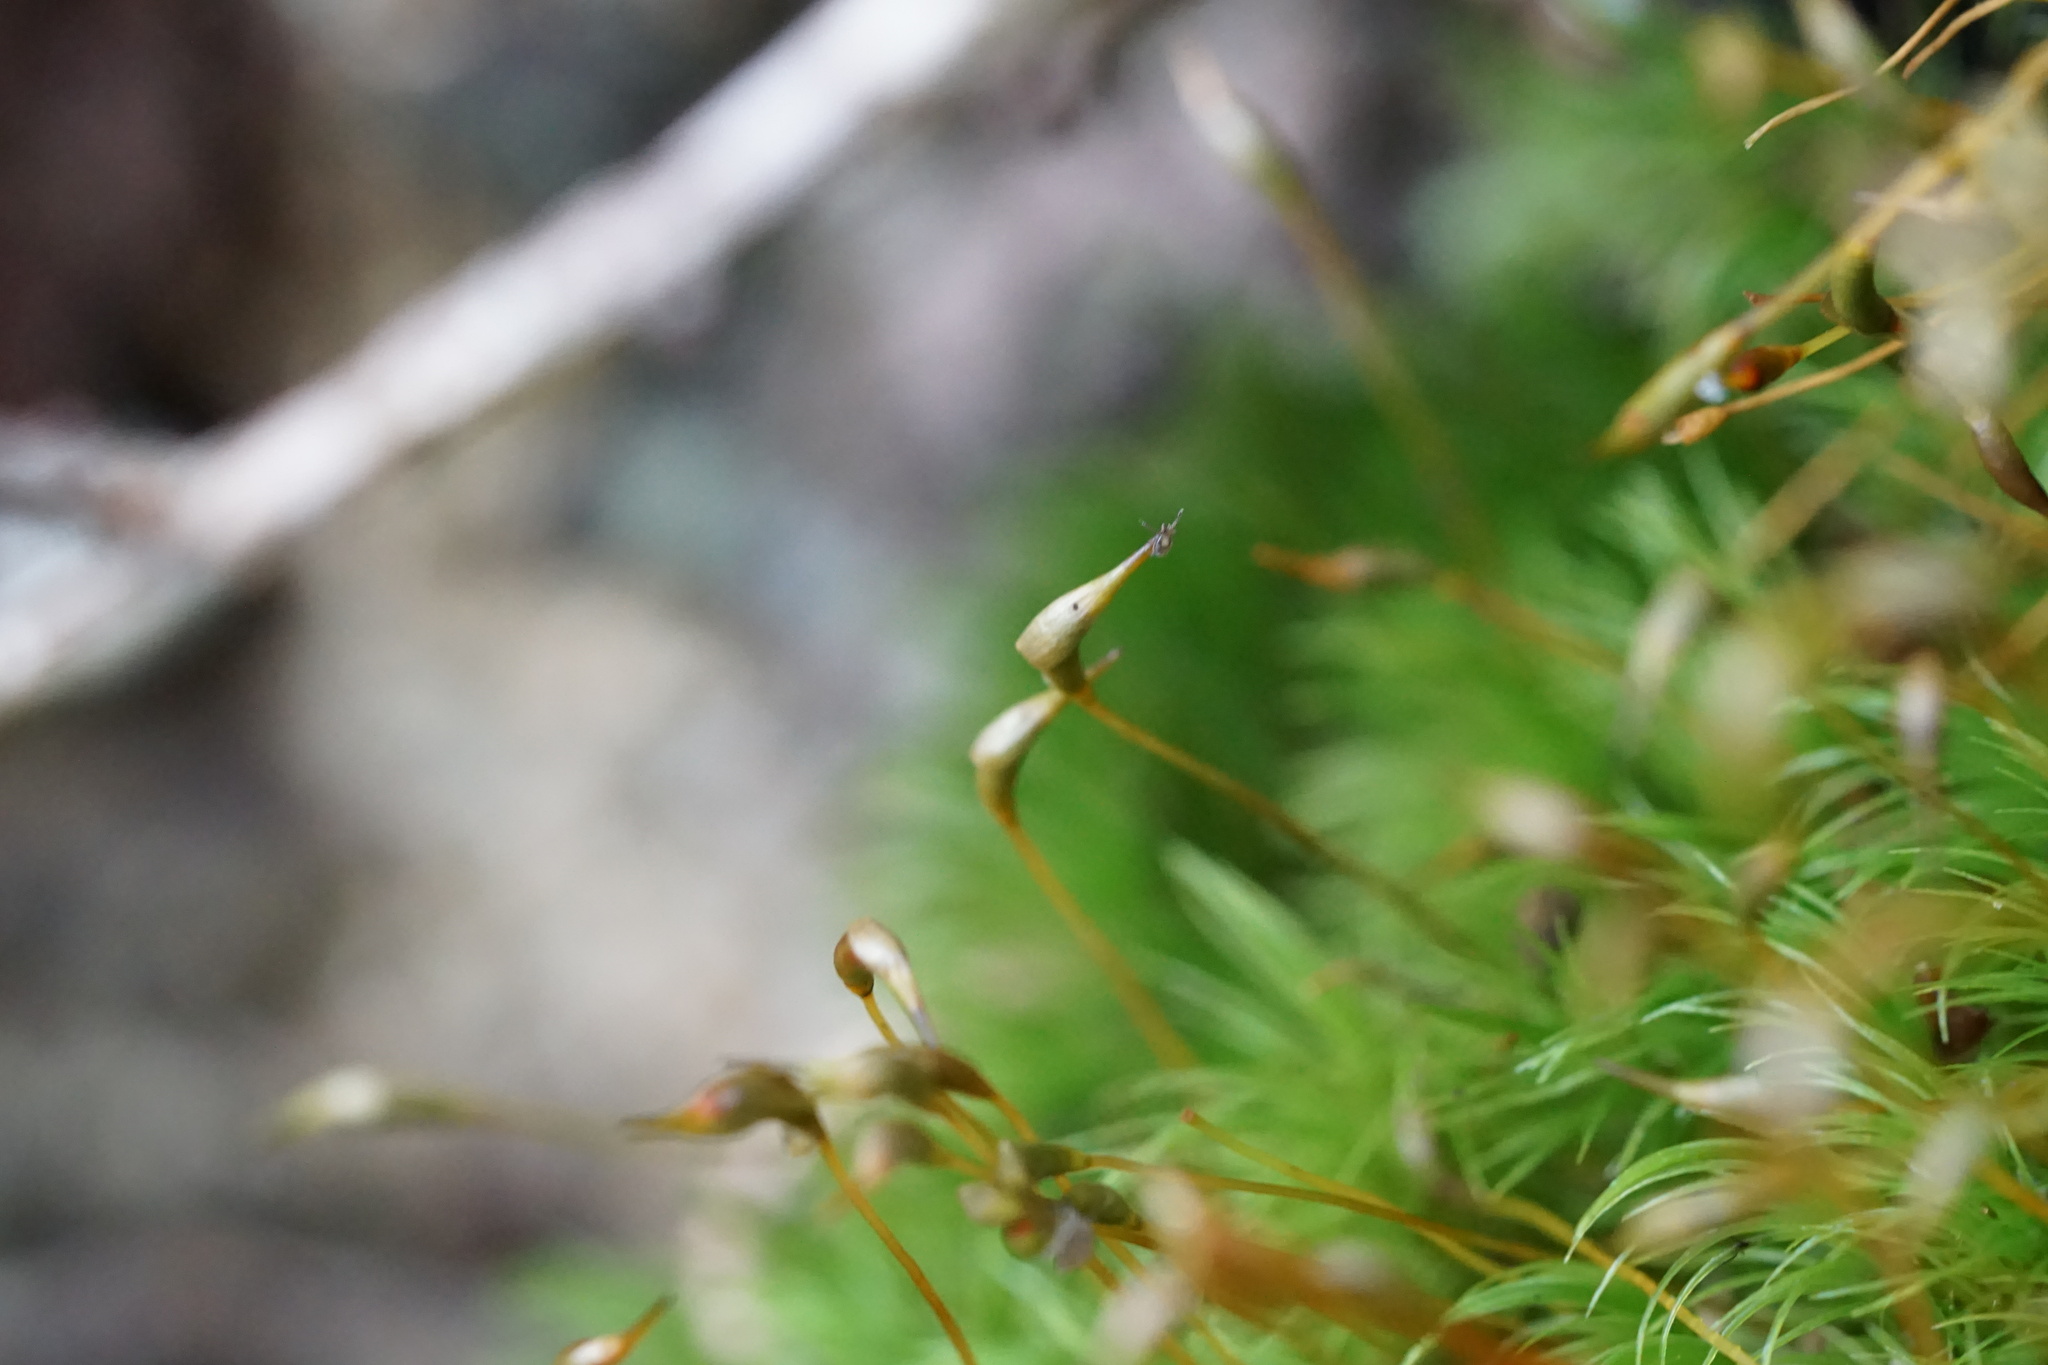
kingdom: Plantae
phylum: Bryophyta
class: Bryopsida
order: Dicranales
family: Dicranaceae
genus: Dicranum
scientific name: Dicranum scoparium
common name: Broom fork-moss
